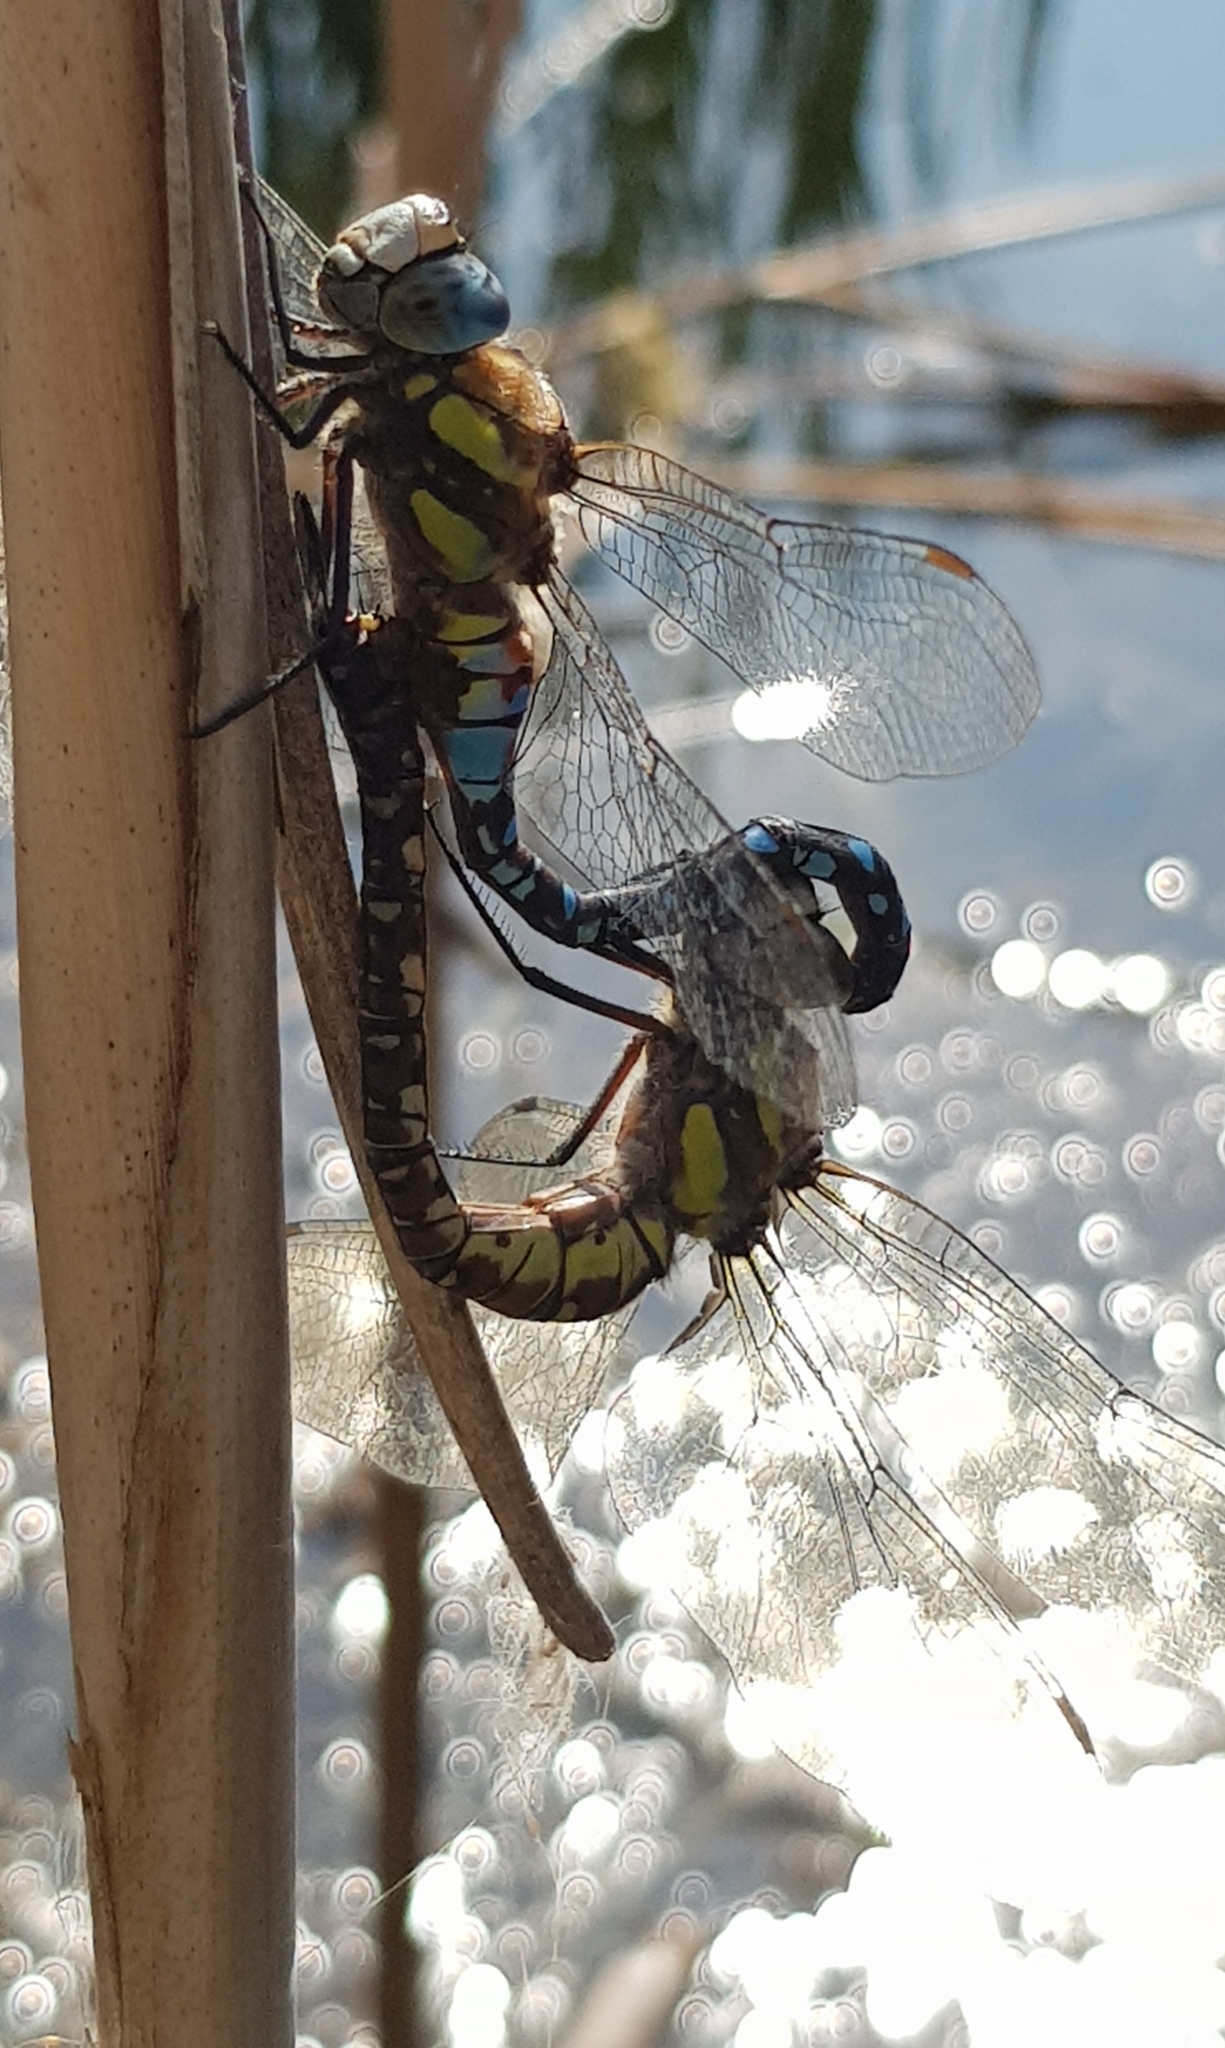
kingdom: Animalia
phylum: Arthropoda
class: Insecta
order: Odonata
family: Aeshnidae
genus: Aeshna
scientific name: Aeshna mixta
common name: Migrant hawker
